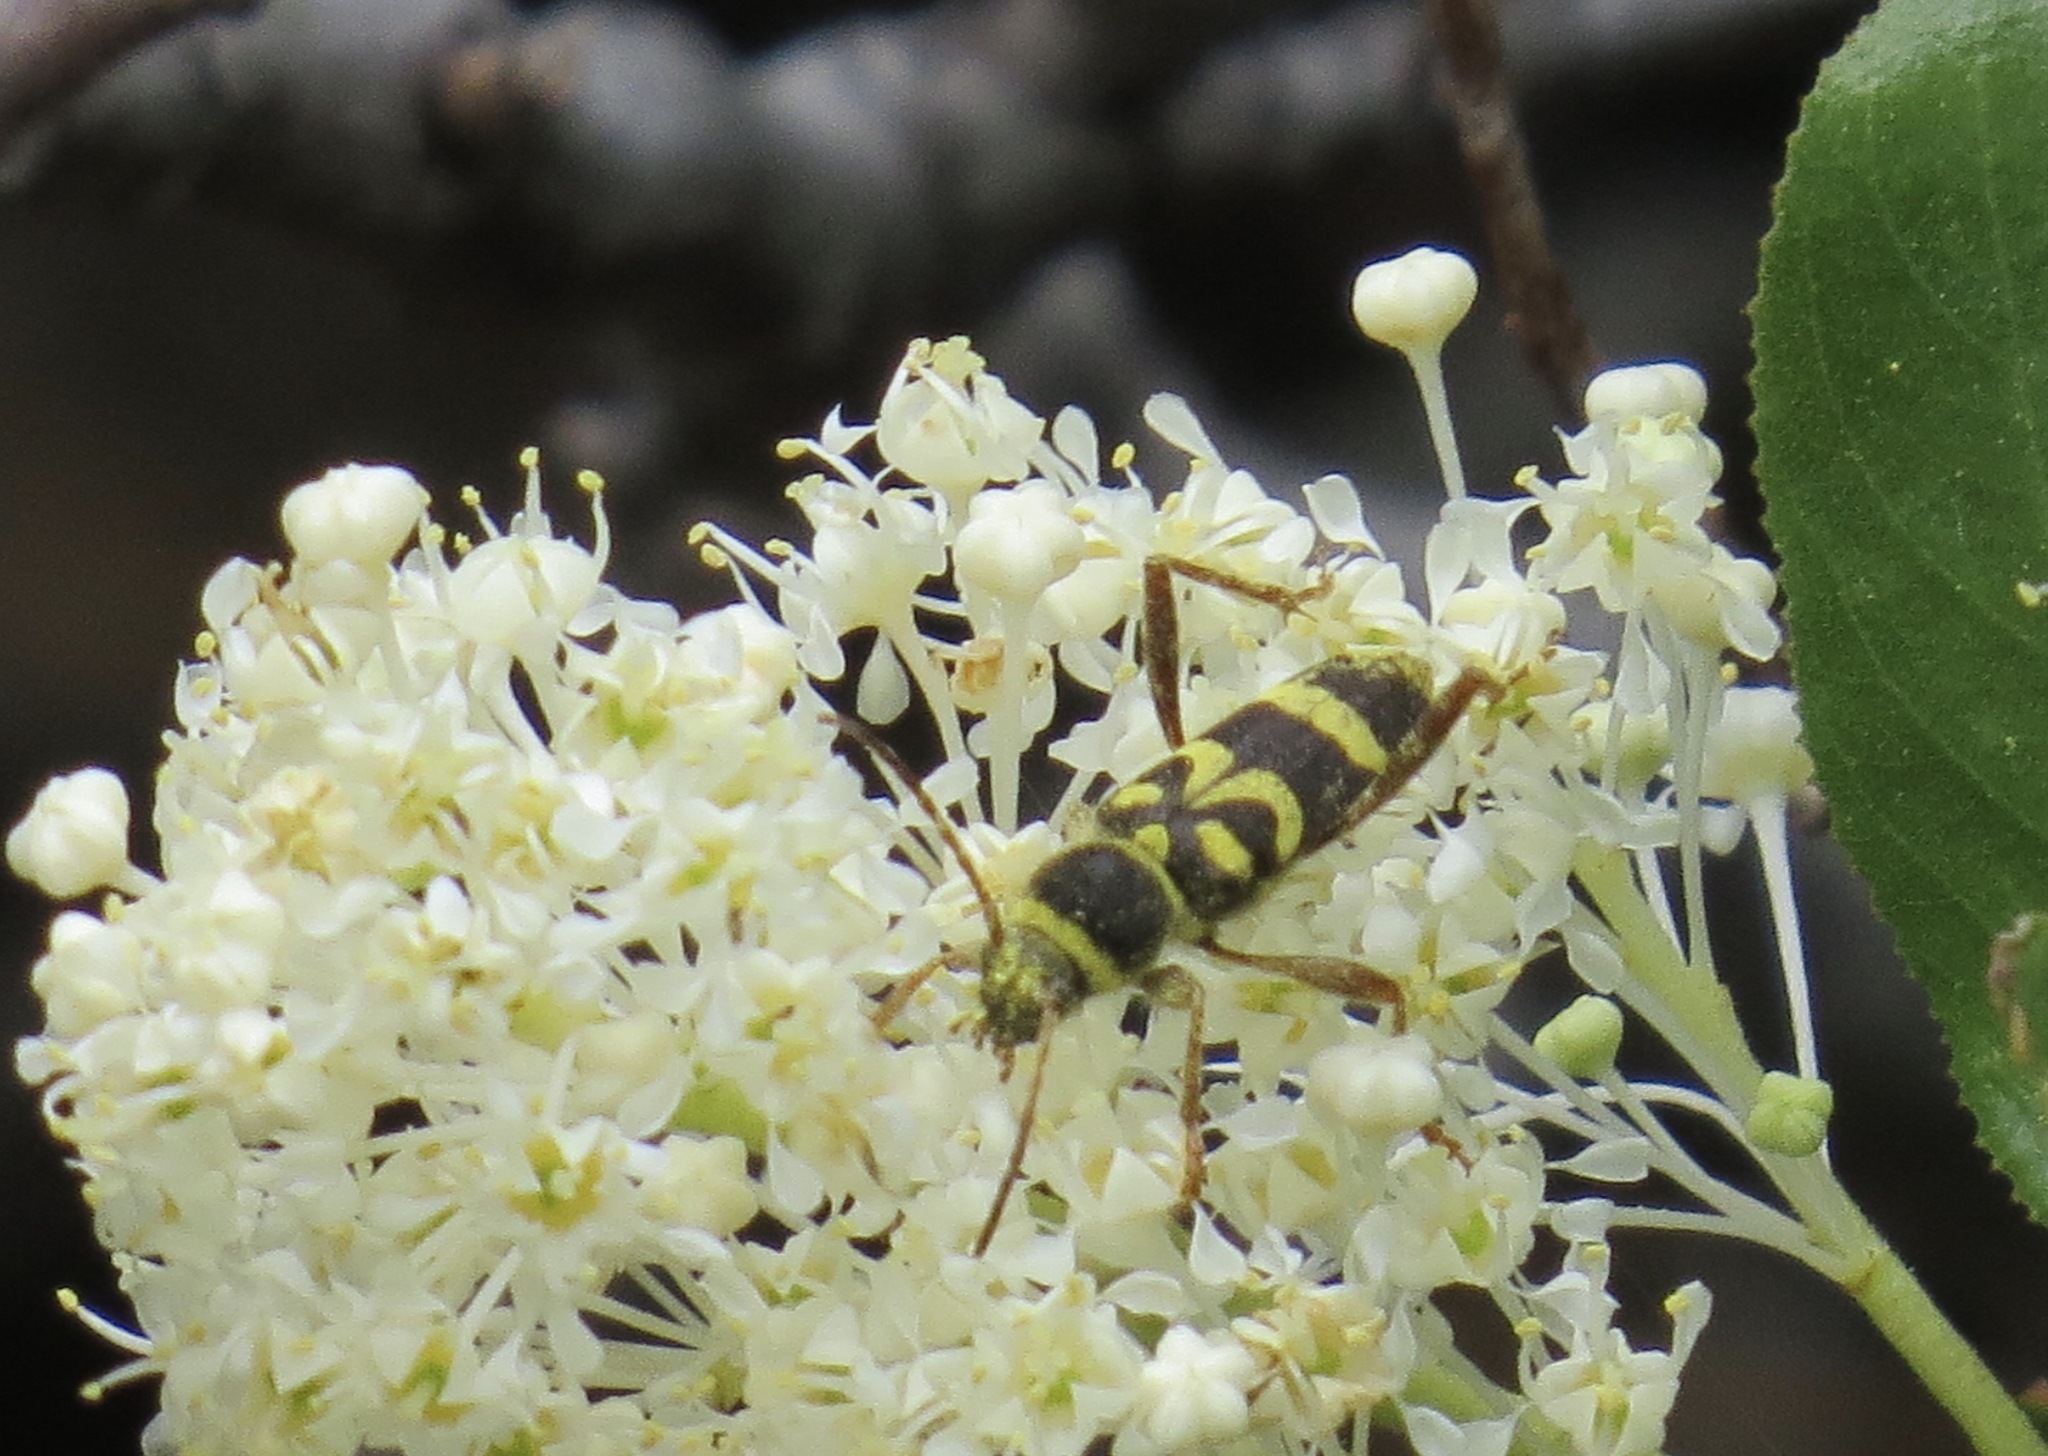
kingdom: Animalia
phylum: Arthropoda
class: Insecta
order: Coleoptera
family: Cerambycidae
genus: Clytus
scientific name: Clytus planifrons
